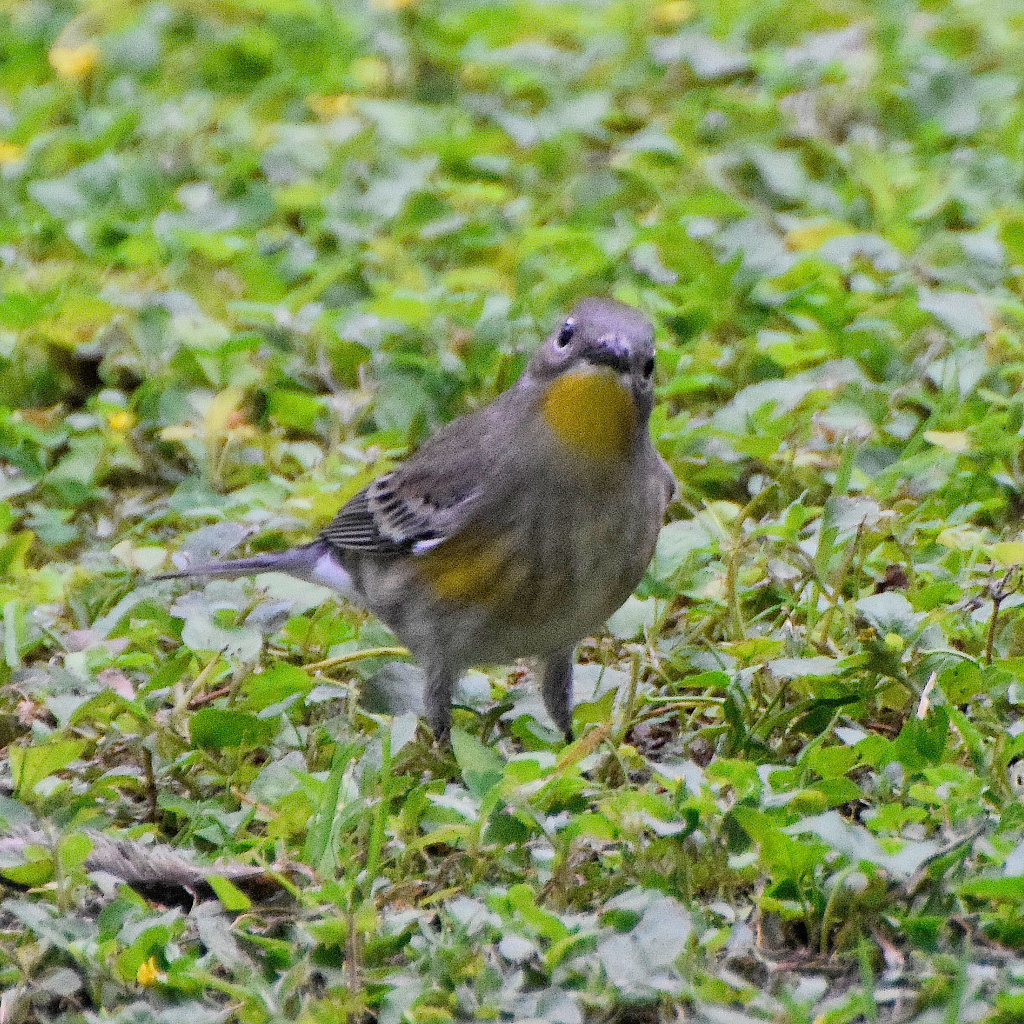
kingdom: Animalia
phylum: Chordata
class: Aves
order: Passeriformes
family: Parulidae
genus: Setophaga
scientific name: Setophaga auduboni
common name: Audubon's warbler
